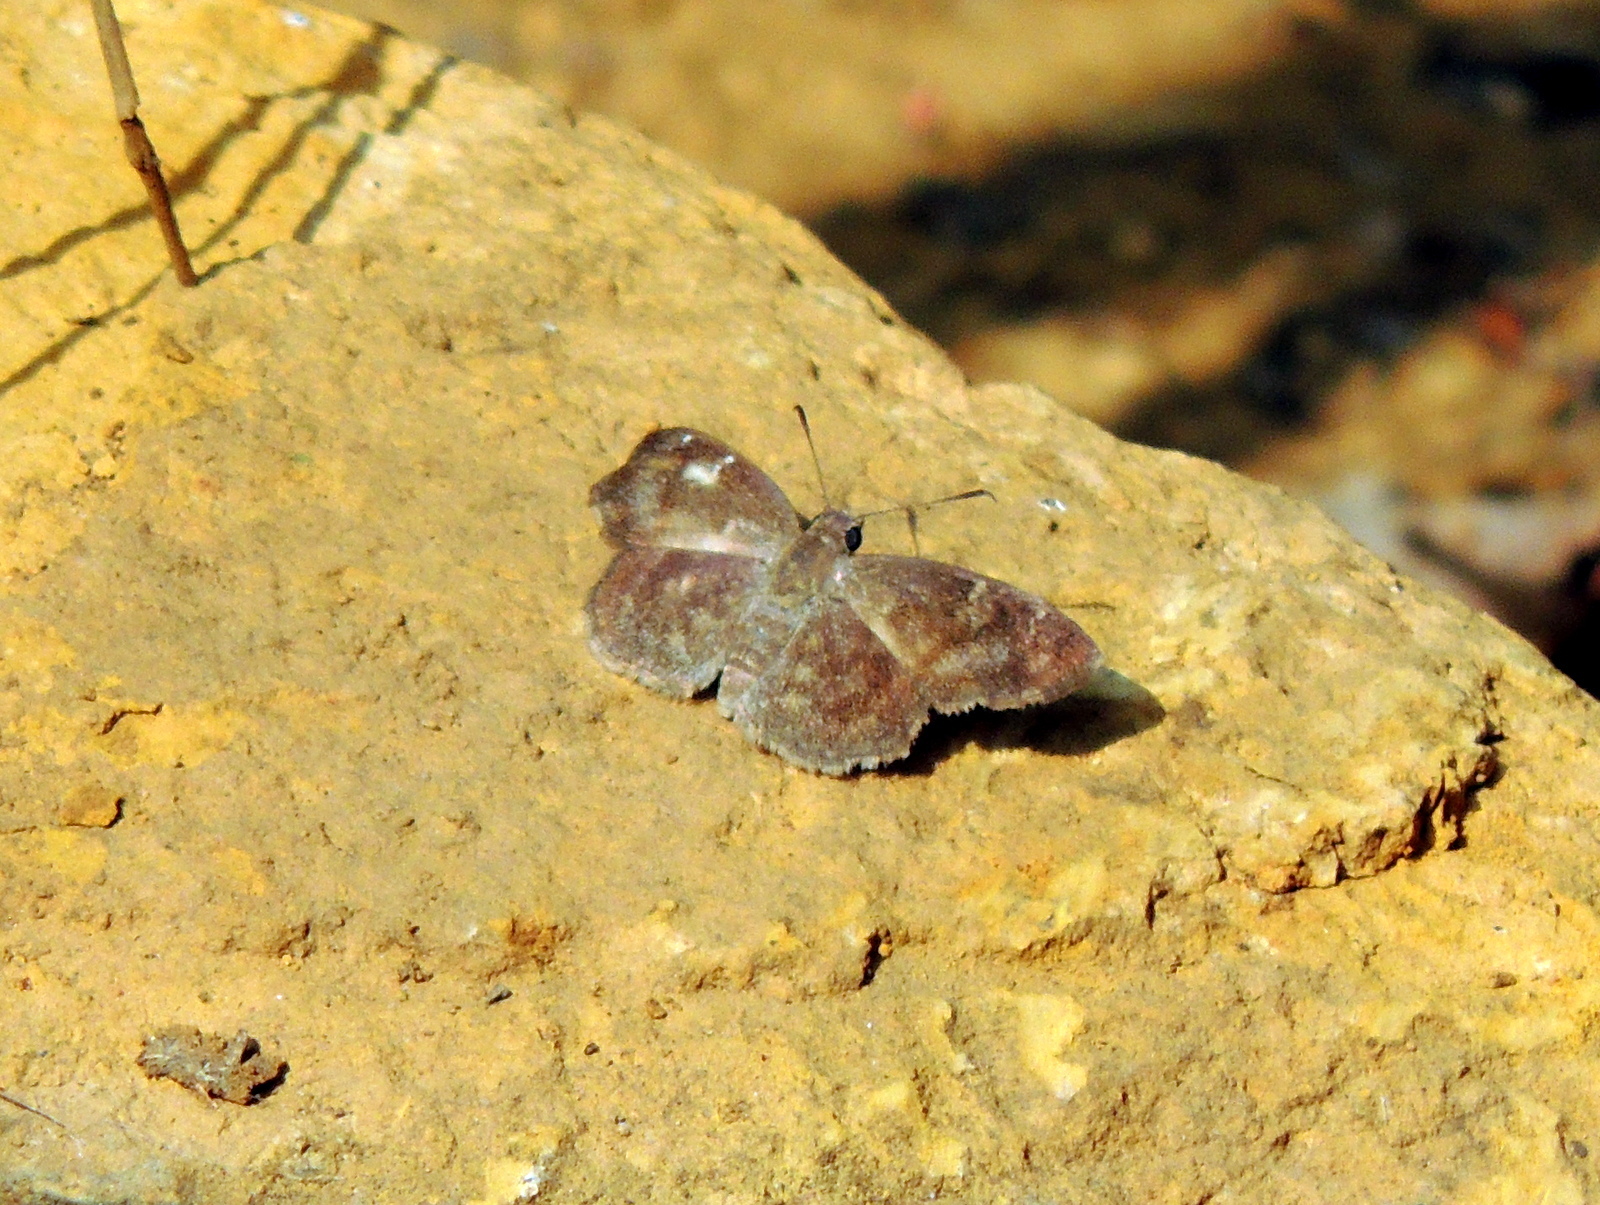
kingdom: Animalia
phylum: Arthropoda
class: Insecta
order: Lepidoptera
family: Hesperiidae
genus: Sarangesa
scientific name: Sarangesa dasahara
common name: Common small flat
